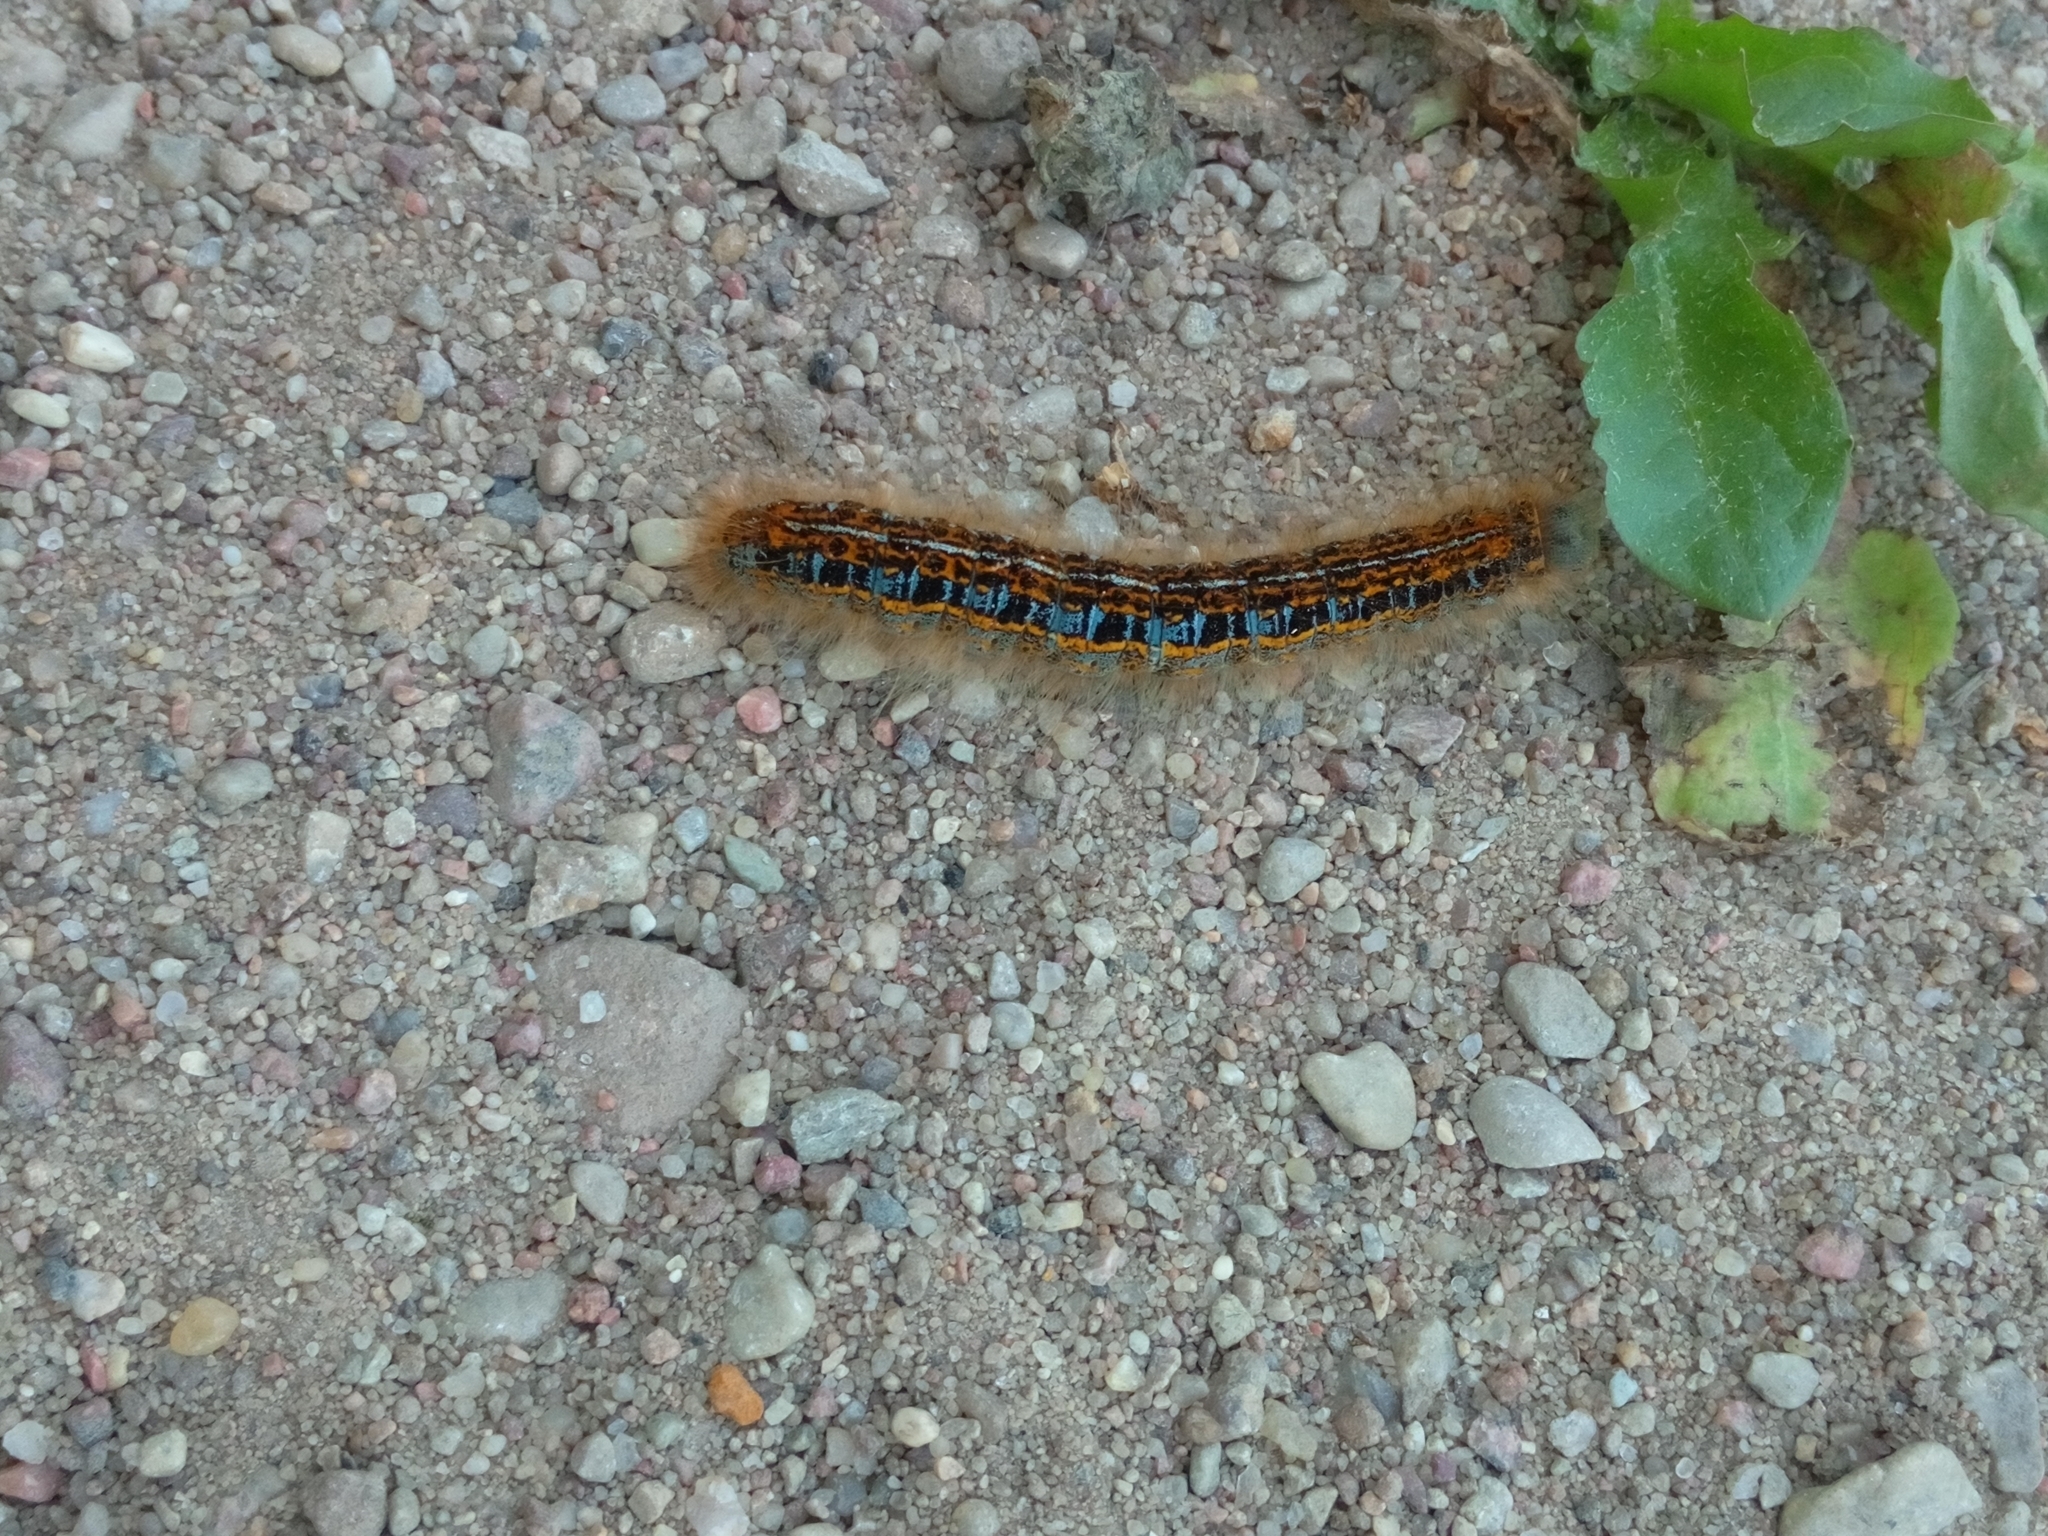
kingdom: Animalia
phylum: Arthropoda
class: Insecta
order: Lepidoptera
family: Lasiocampidae
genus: Malacosoma
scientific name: Malacosoma castrense
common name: Ground lackey
